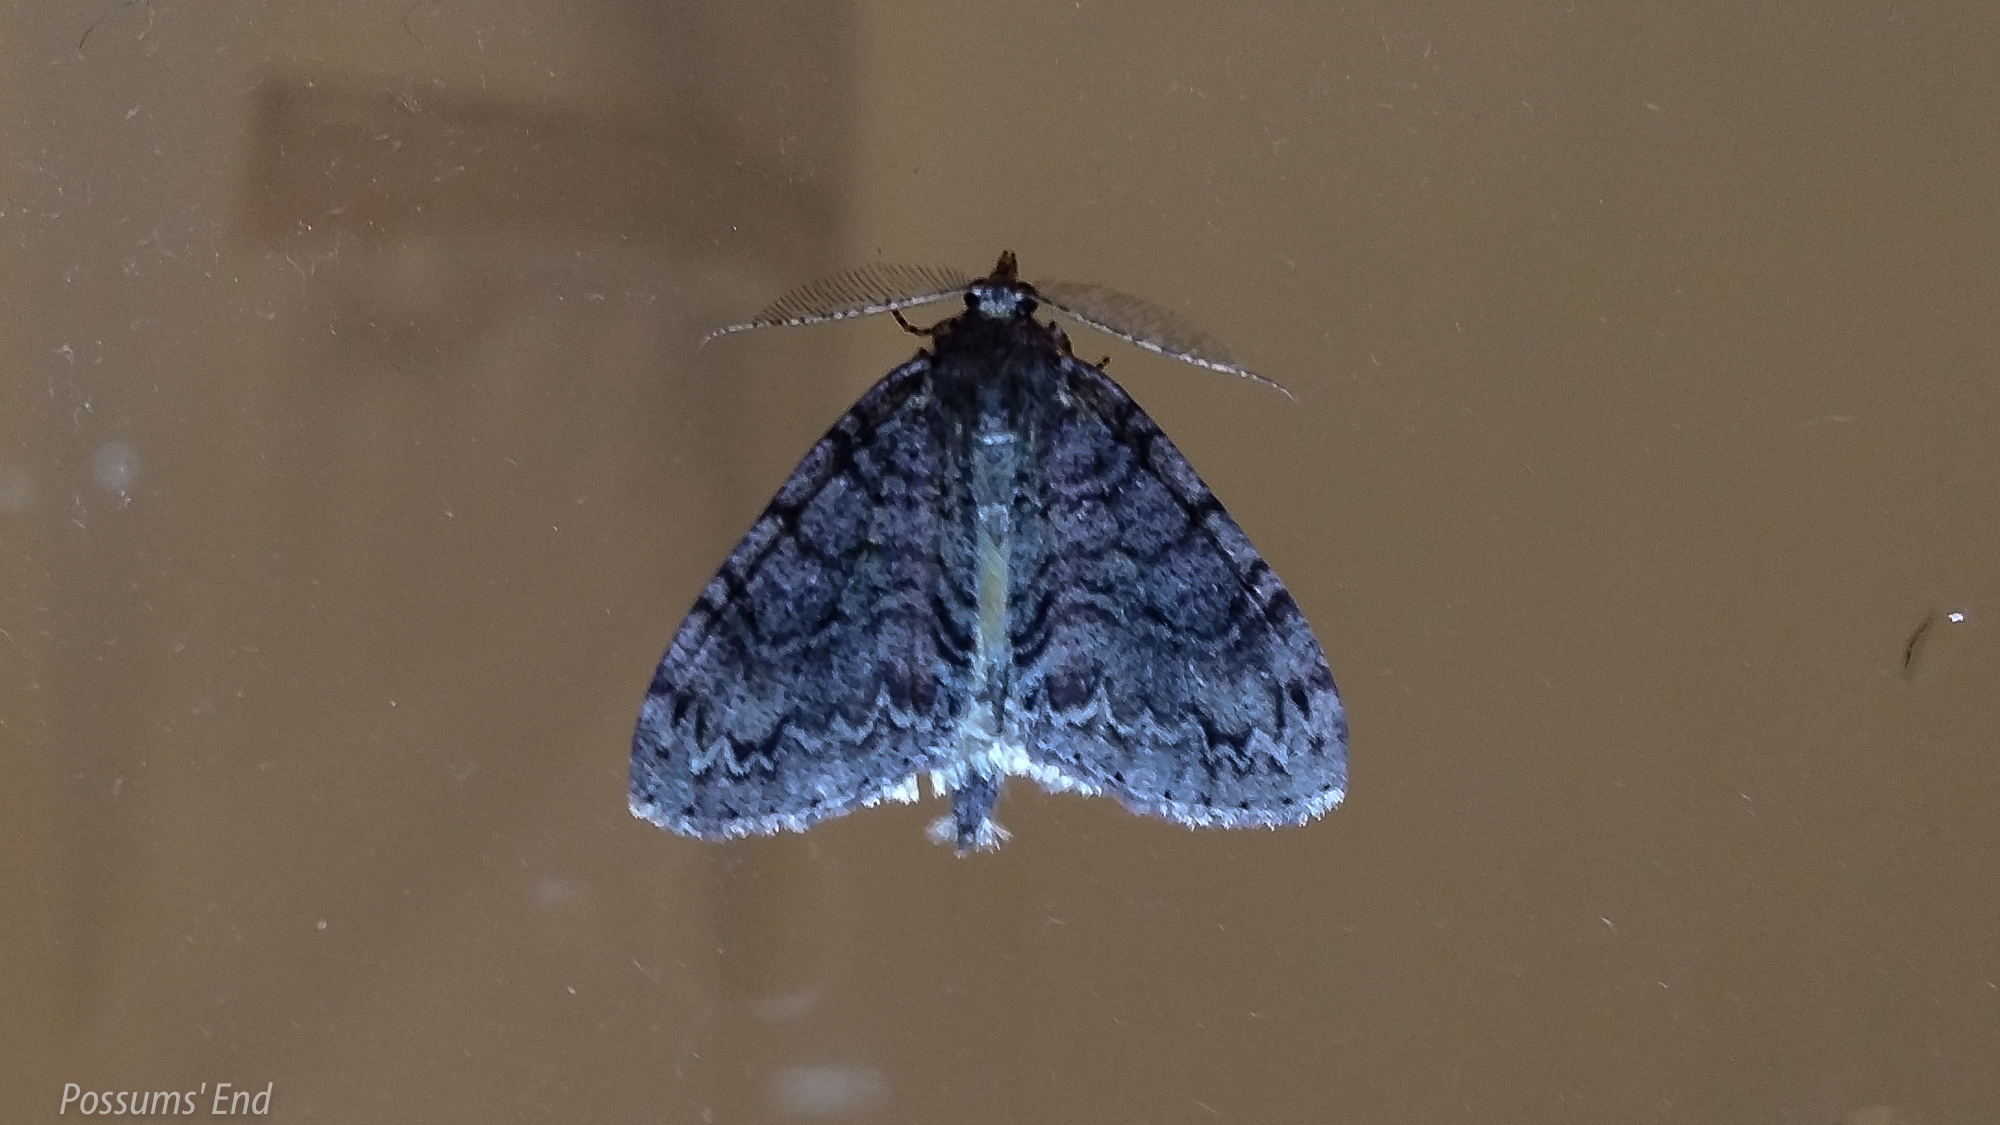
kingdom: Animalia
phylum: Arthropoda
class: Insecta
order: Lepidoptera
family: Geometridae
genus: Pseudocoremia
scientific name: Pseudocoremia suavis
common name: Common forest looper
